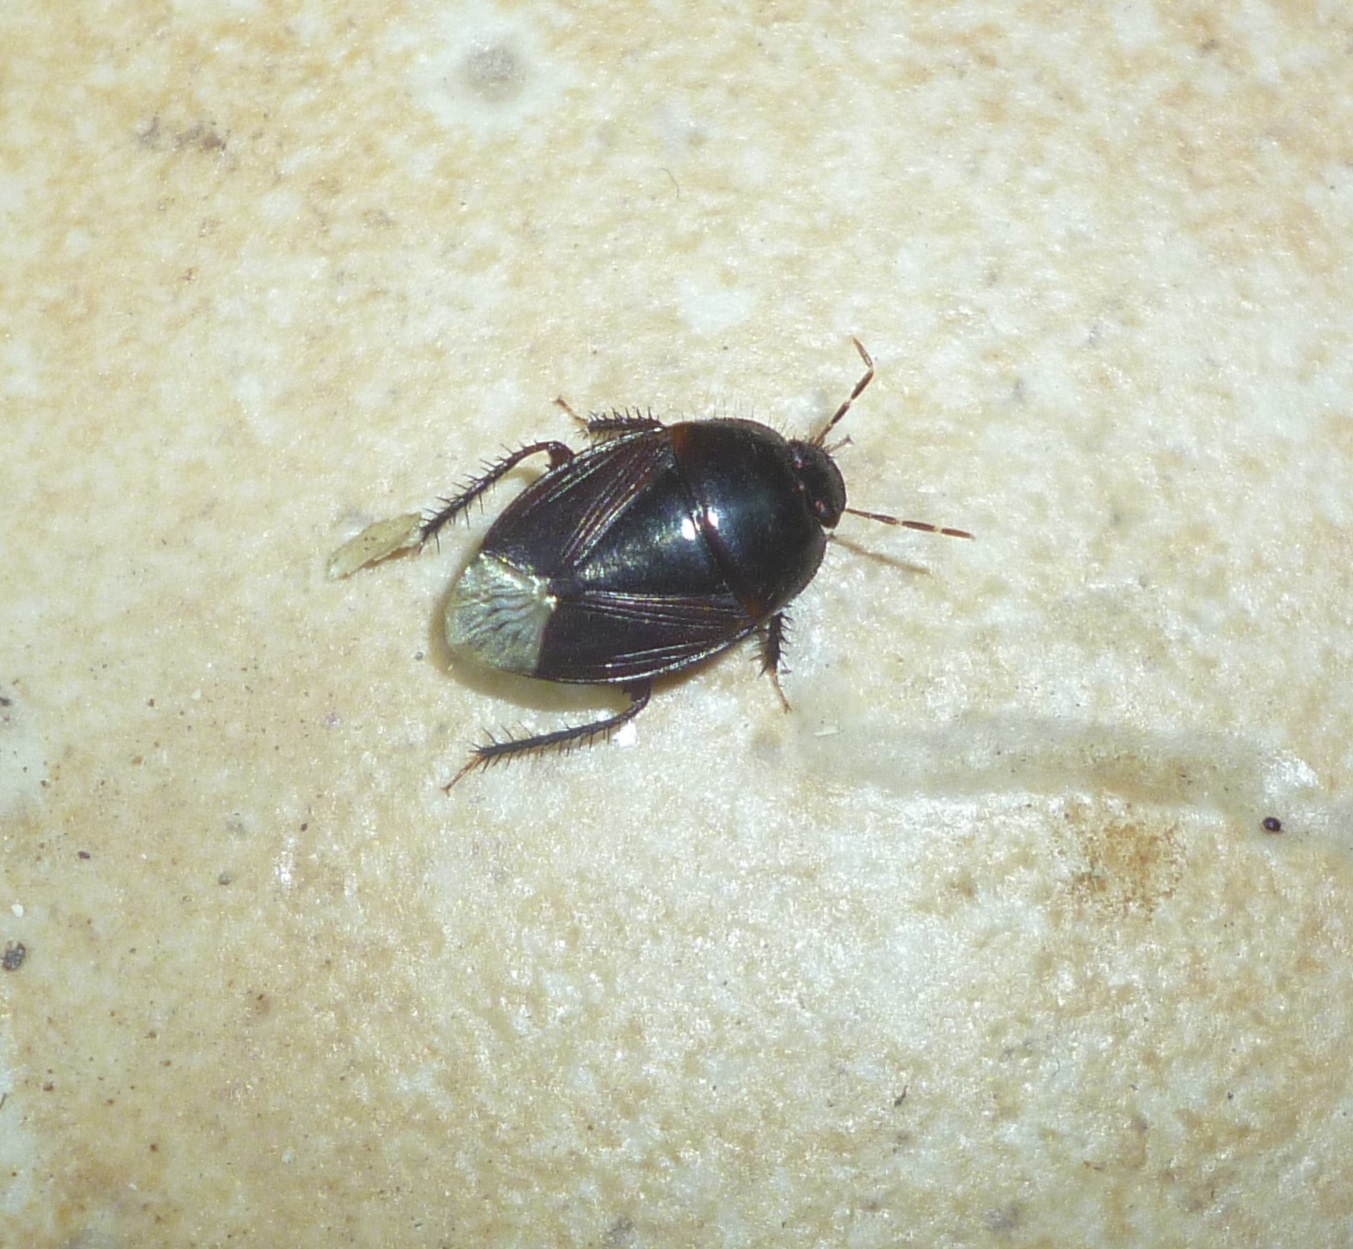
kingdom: Animalia
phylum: Arthropoda
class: Insecta
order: Hemiptera
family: Cydnidae
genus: Macroscytus
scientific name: Macroscytus brunneus
